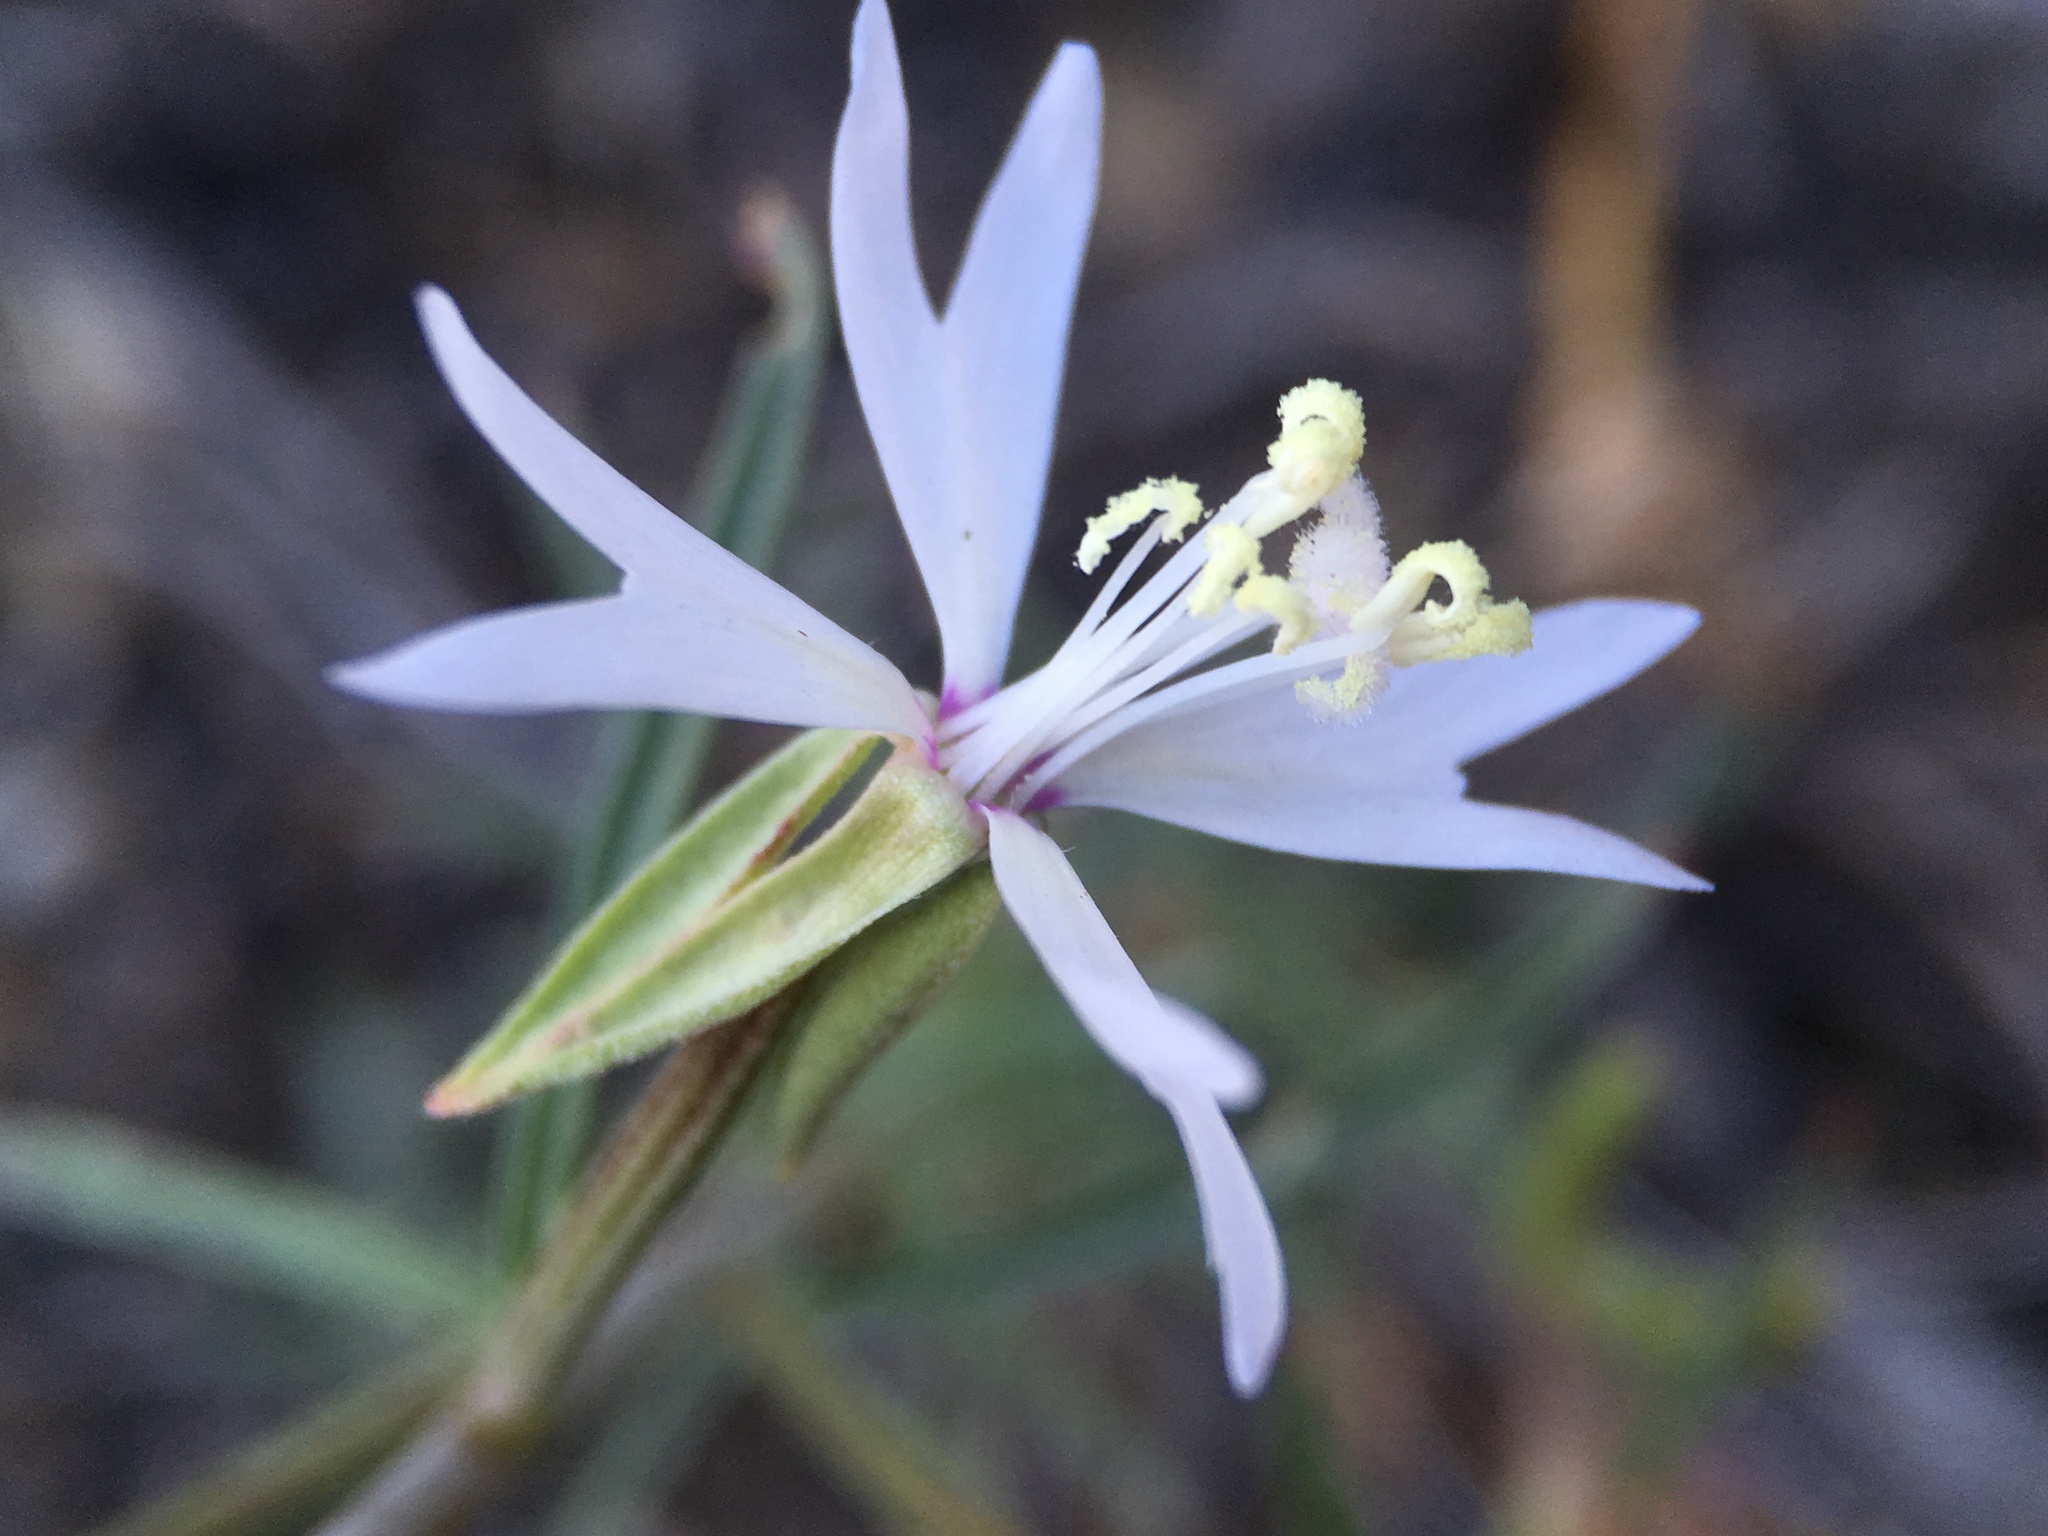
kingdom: Plantae
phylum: Tracheophyta
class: Magnoliopsida
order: Myrtales
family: Onagraceae
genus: Clarkia
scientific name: Clarkia xantiana
